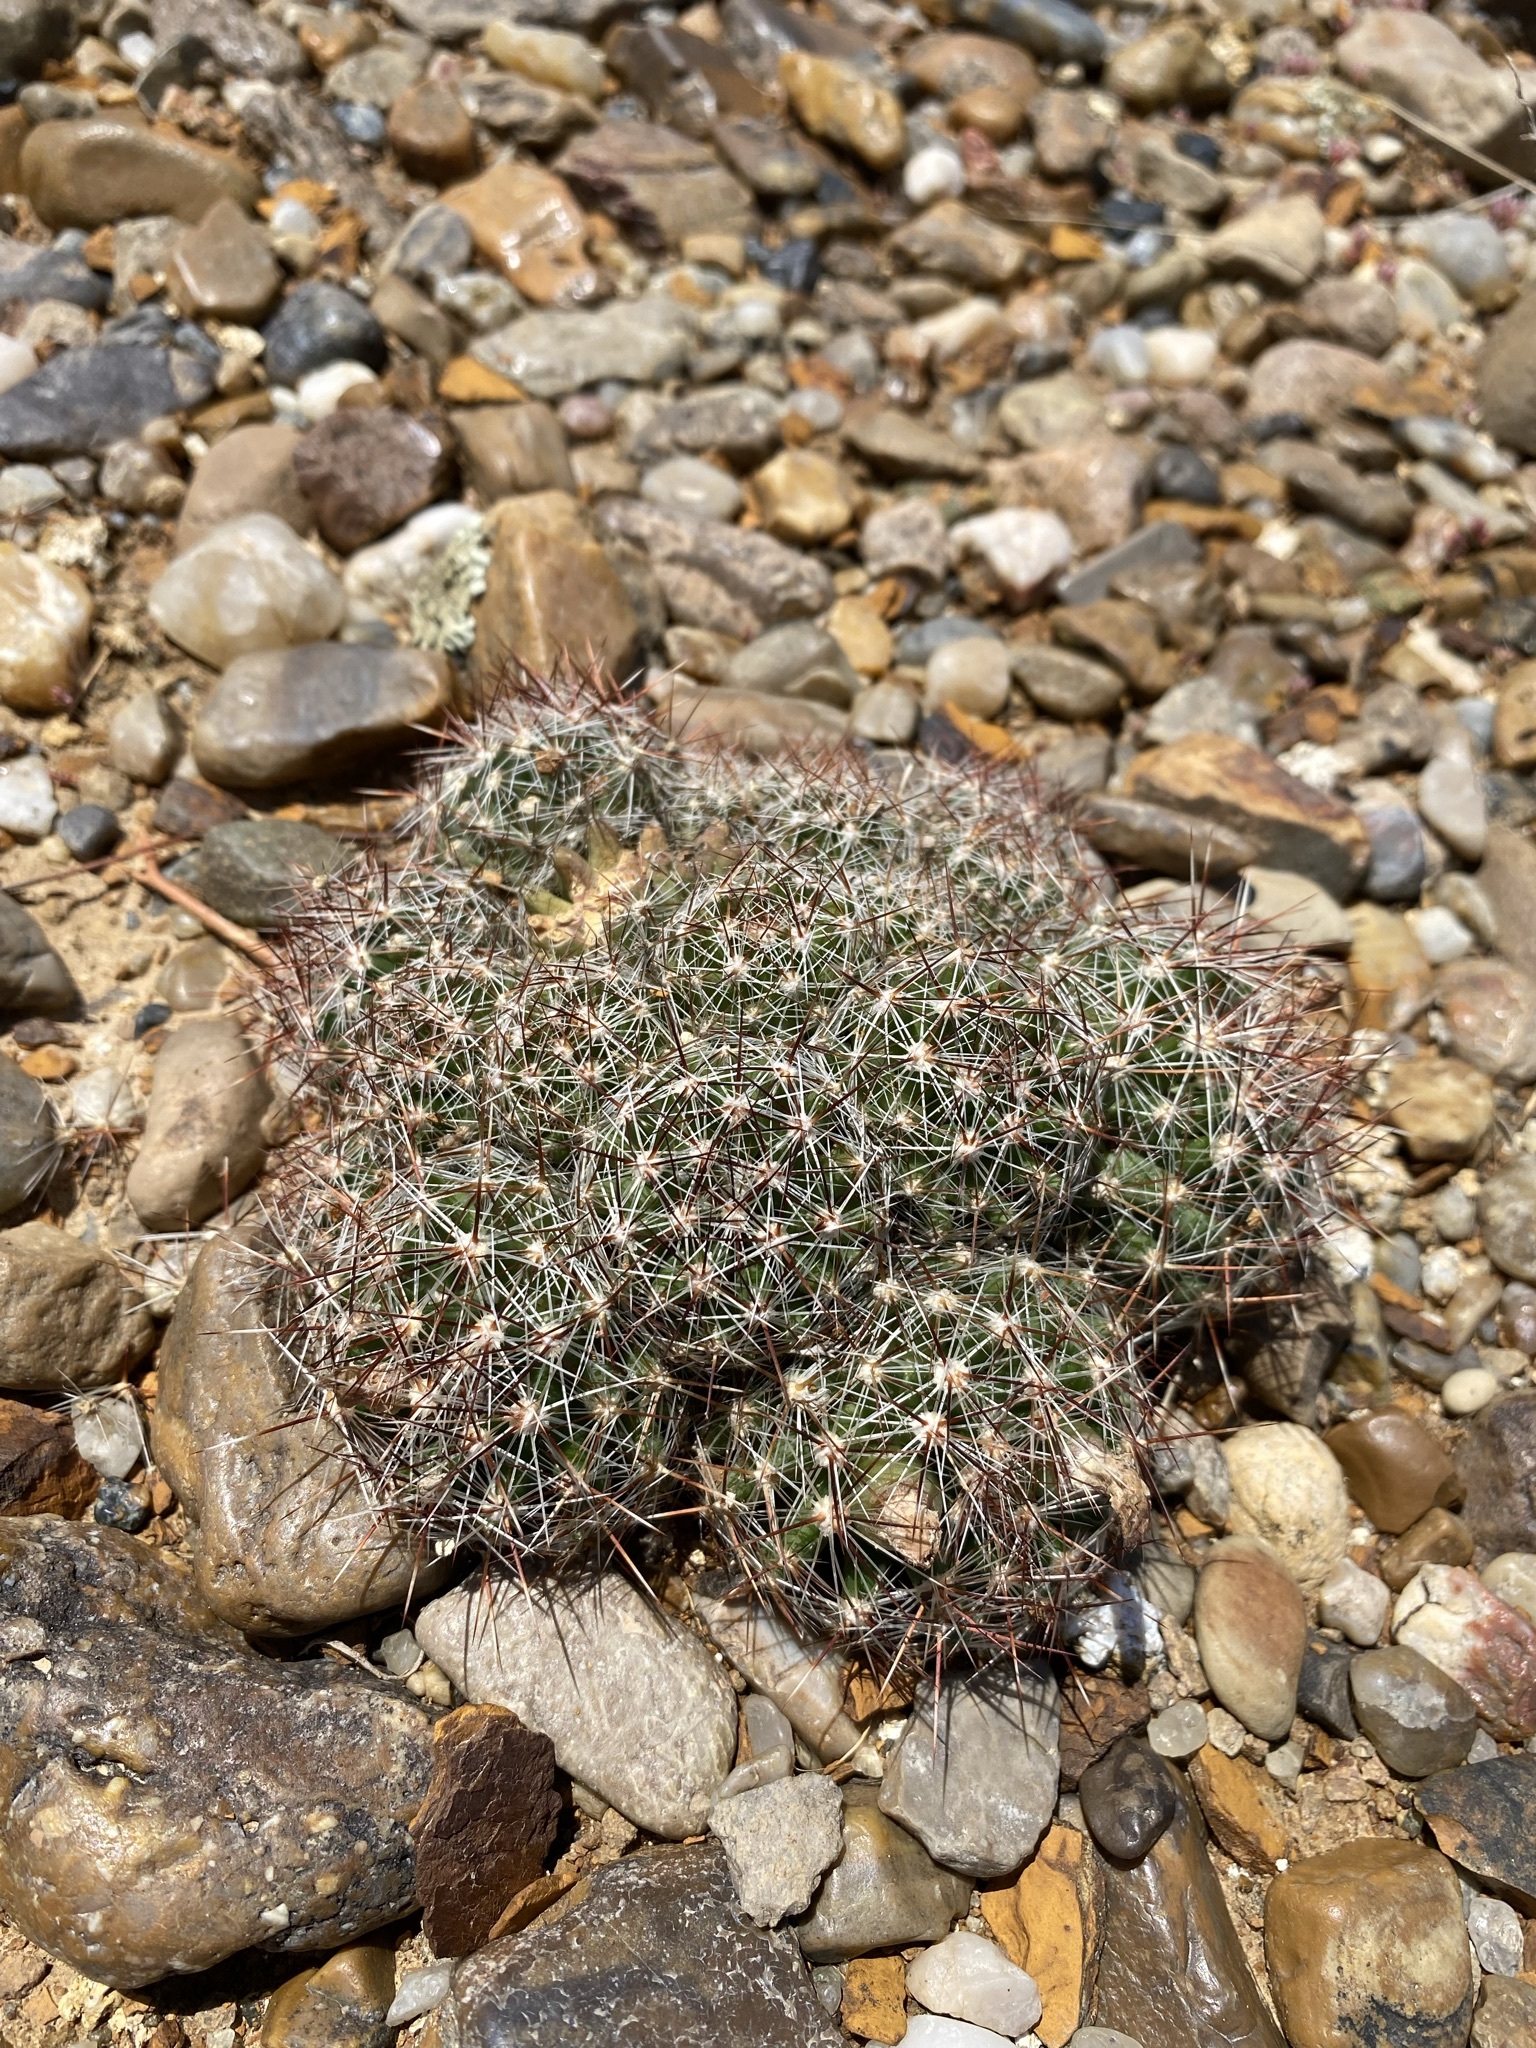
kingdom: Plantae
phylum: Tracheophyta
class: Magnoliopsida
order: Caryophyllales
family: Cactaceae
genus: Pelecyphora
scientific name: Pelecyphora vivipara
